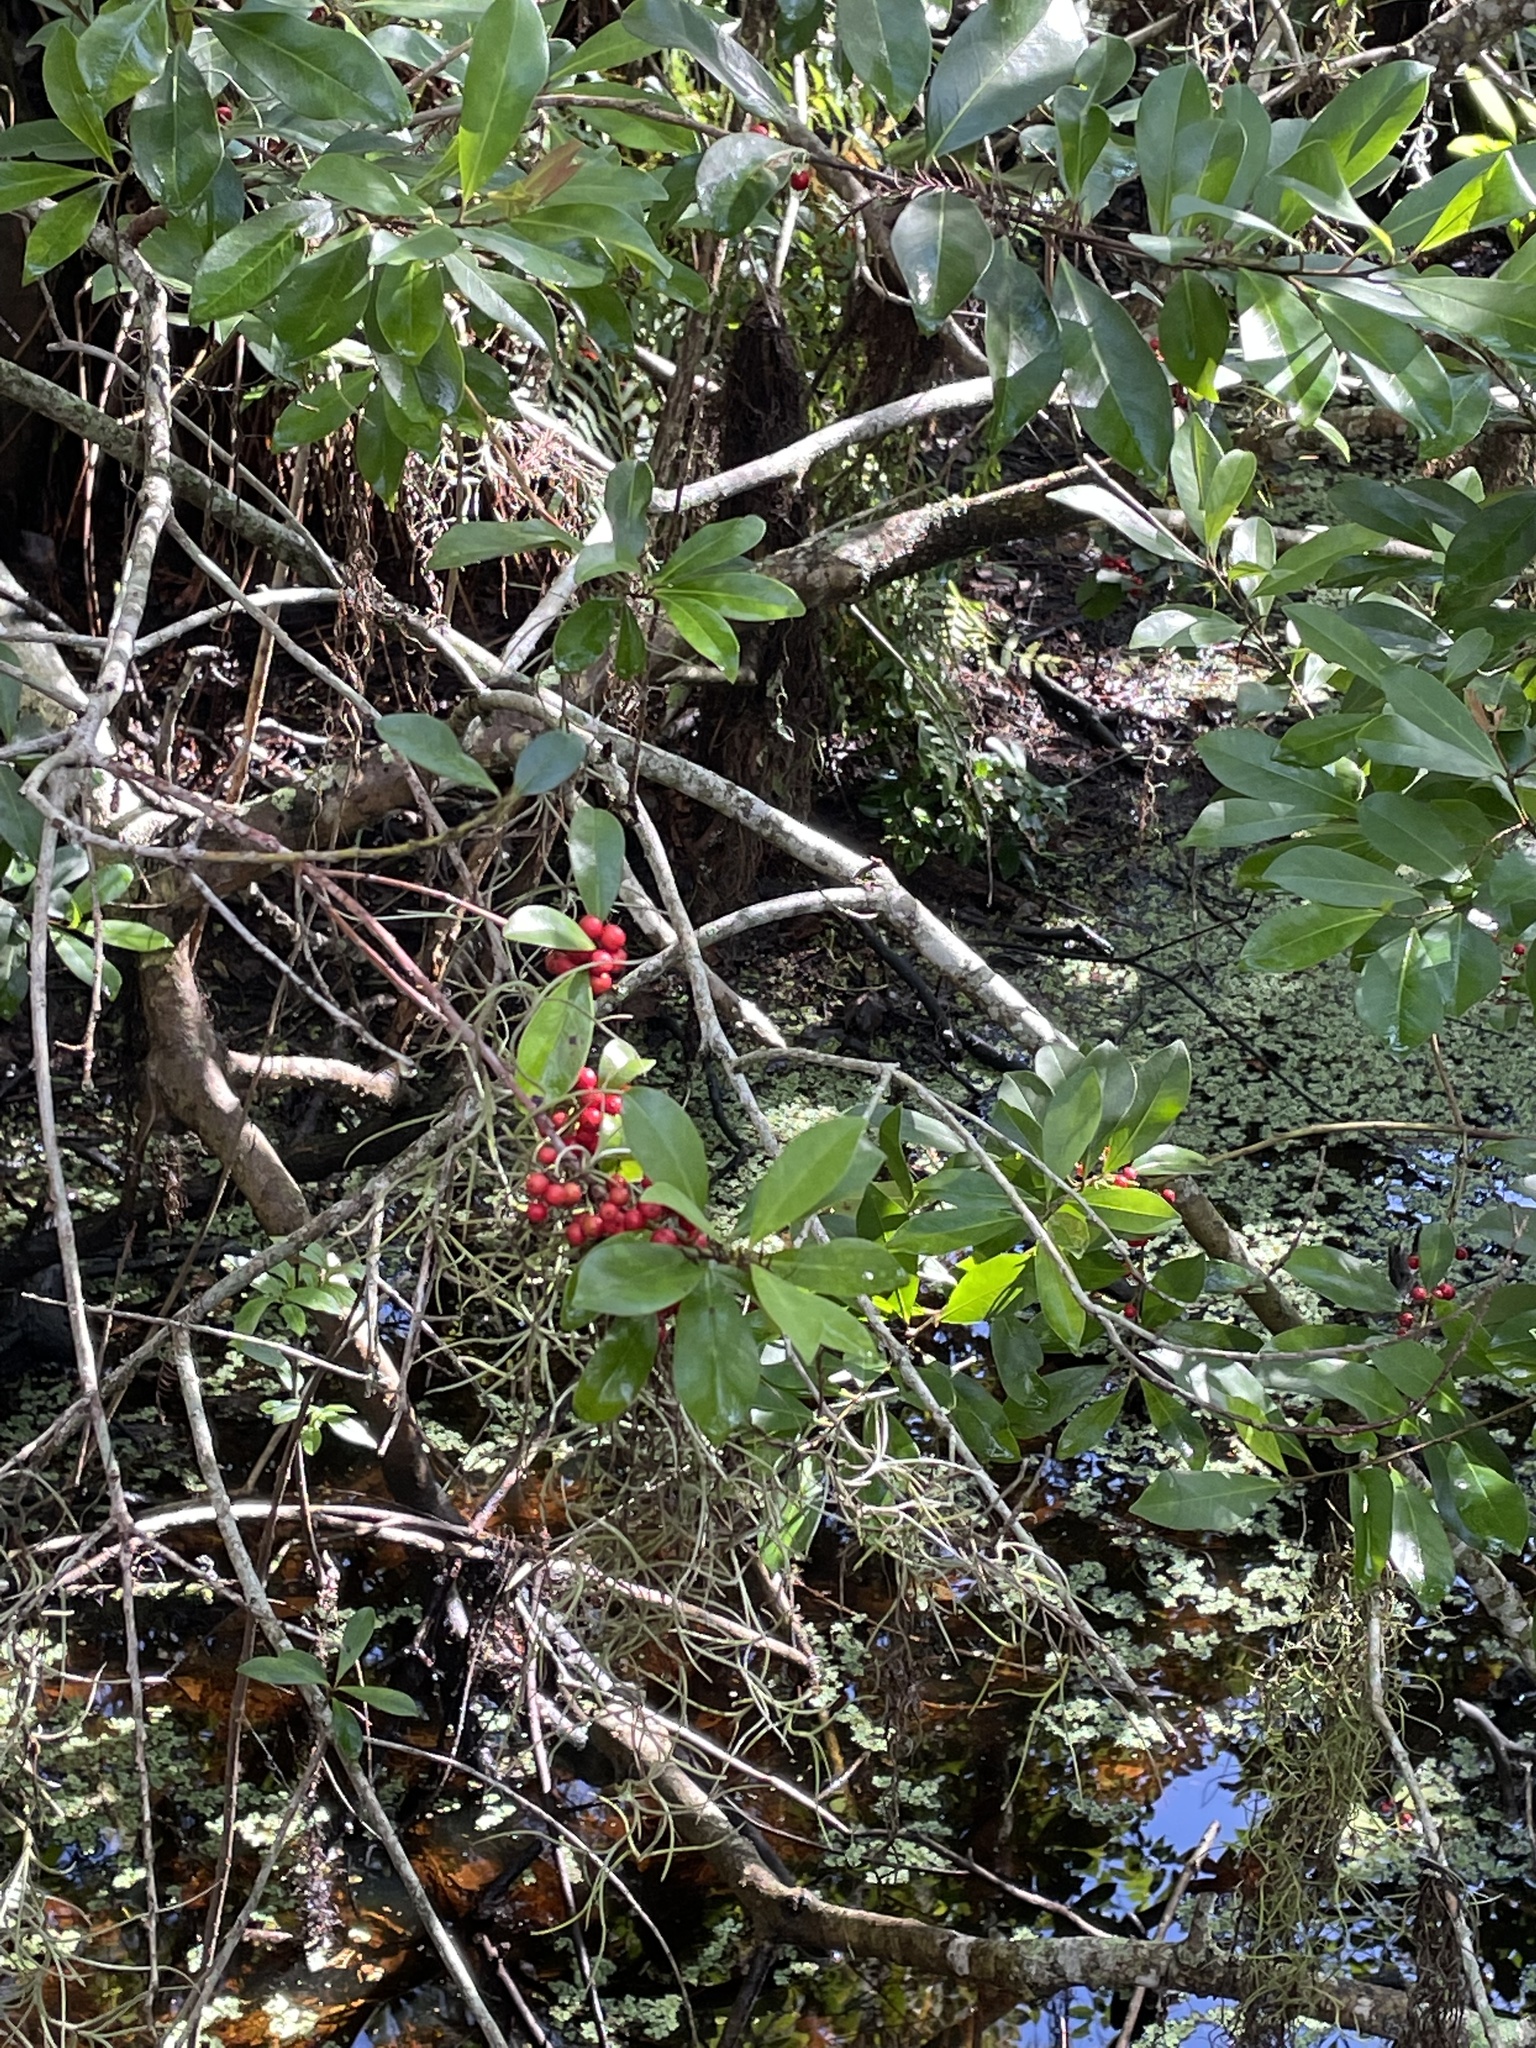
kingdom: Plantae
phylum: Tracheophyta
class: Magnoliopsida
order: Aquifoliales
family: Aquifoliaceae
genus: Ilex
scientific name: Ilex cassine
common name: Dahoon
